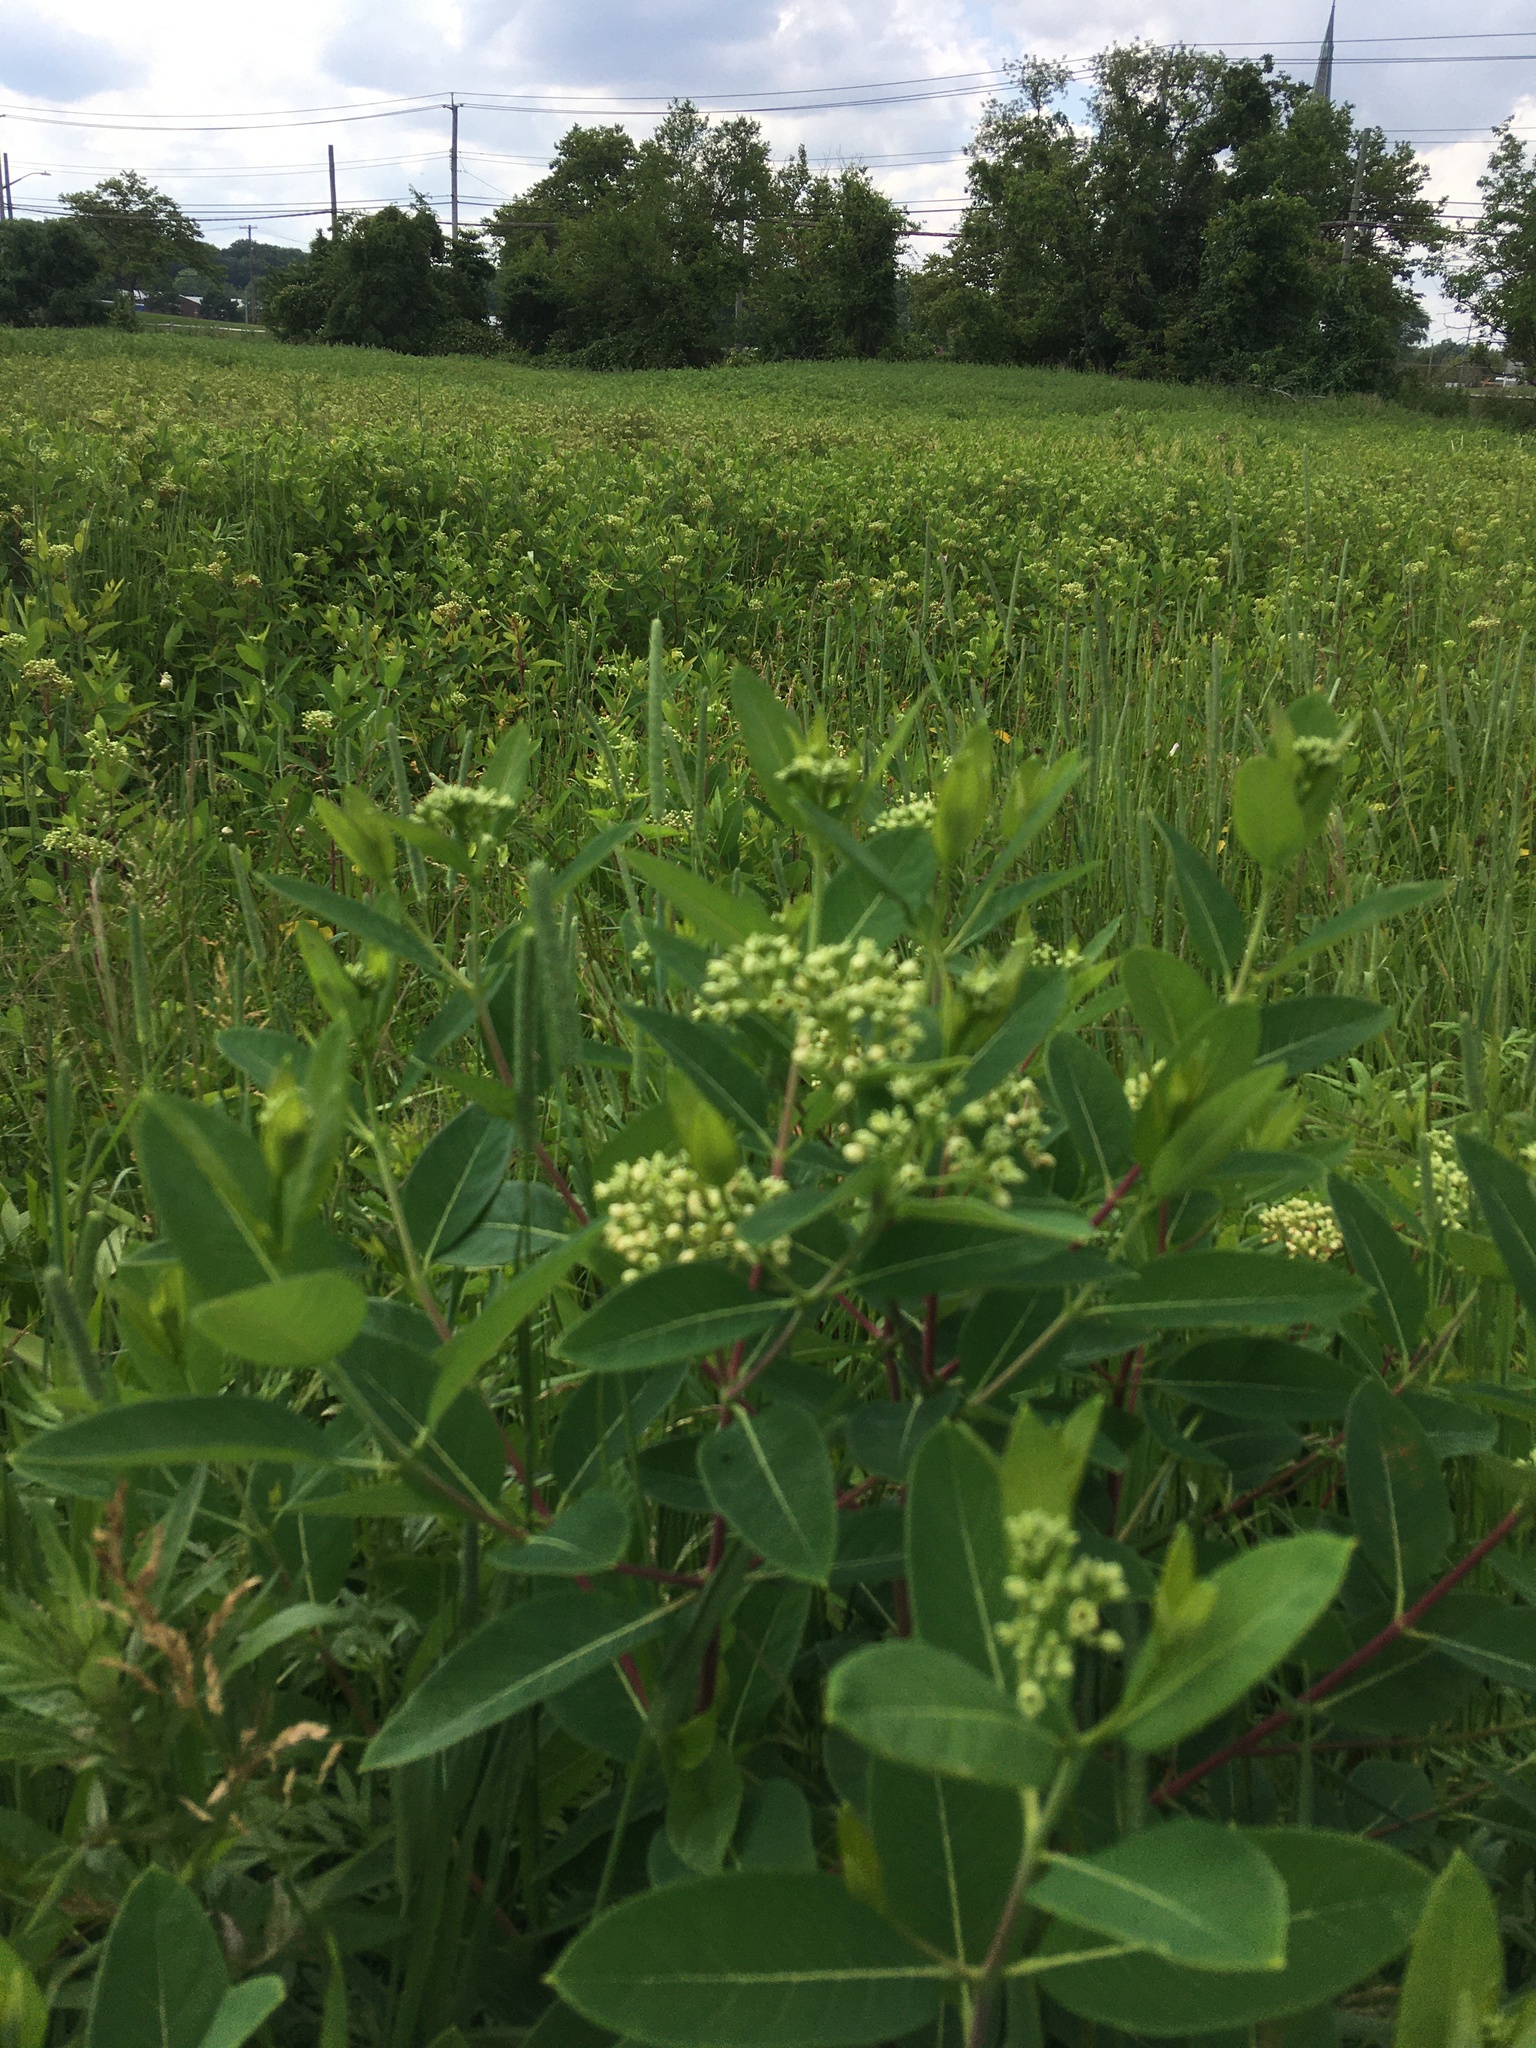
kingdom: Plantae
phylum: Tracheophyta
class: Magnoliopsida
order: Gentianales
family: Apocynaceae
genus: Apocynum
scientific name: Apocynum cannabinum
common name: Hemp dogbane
